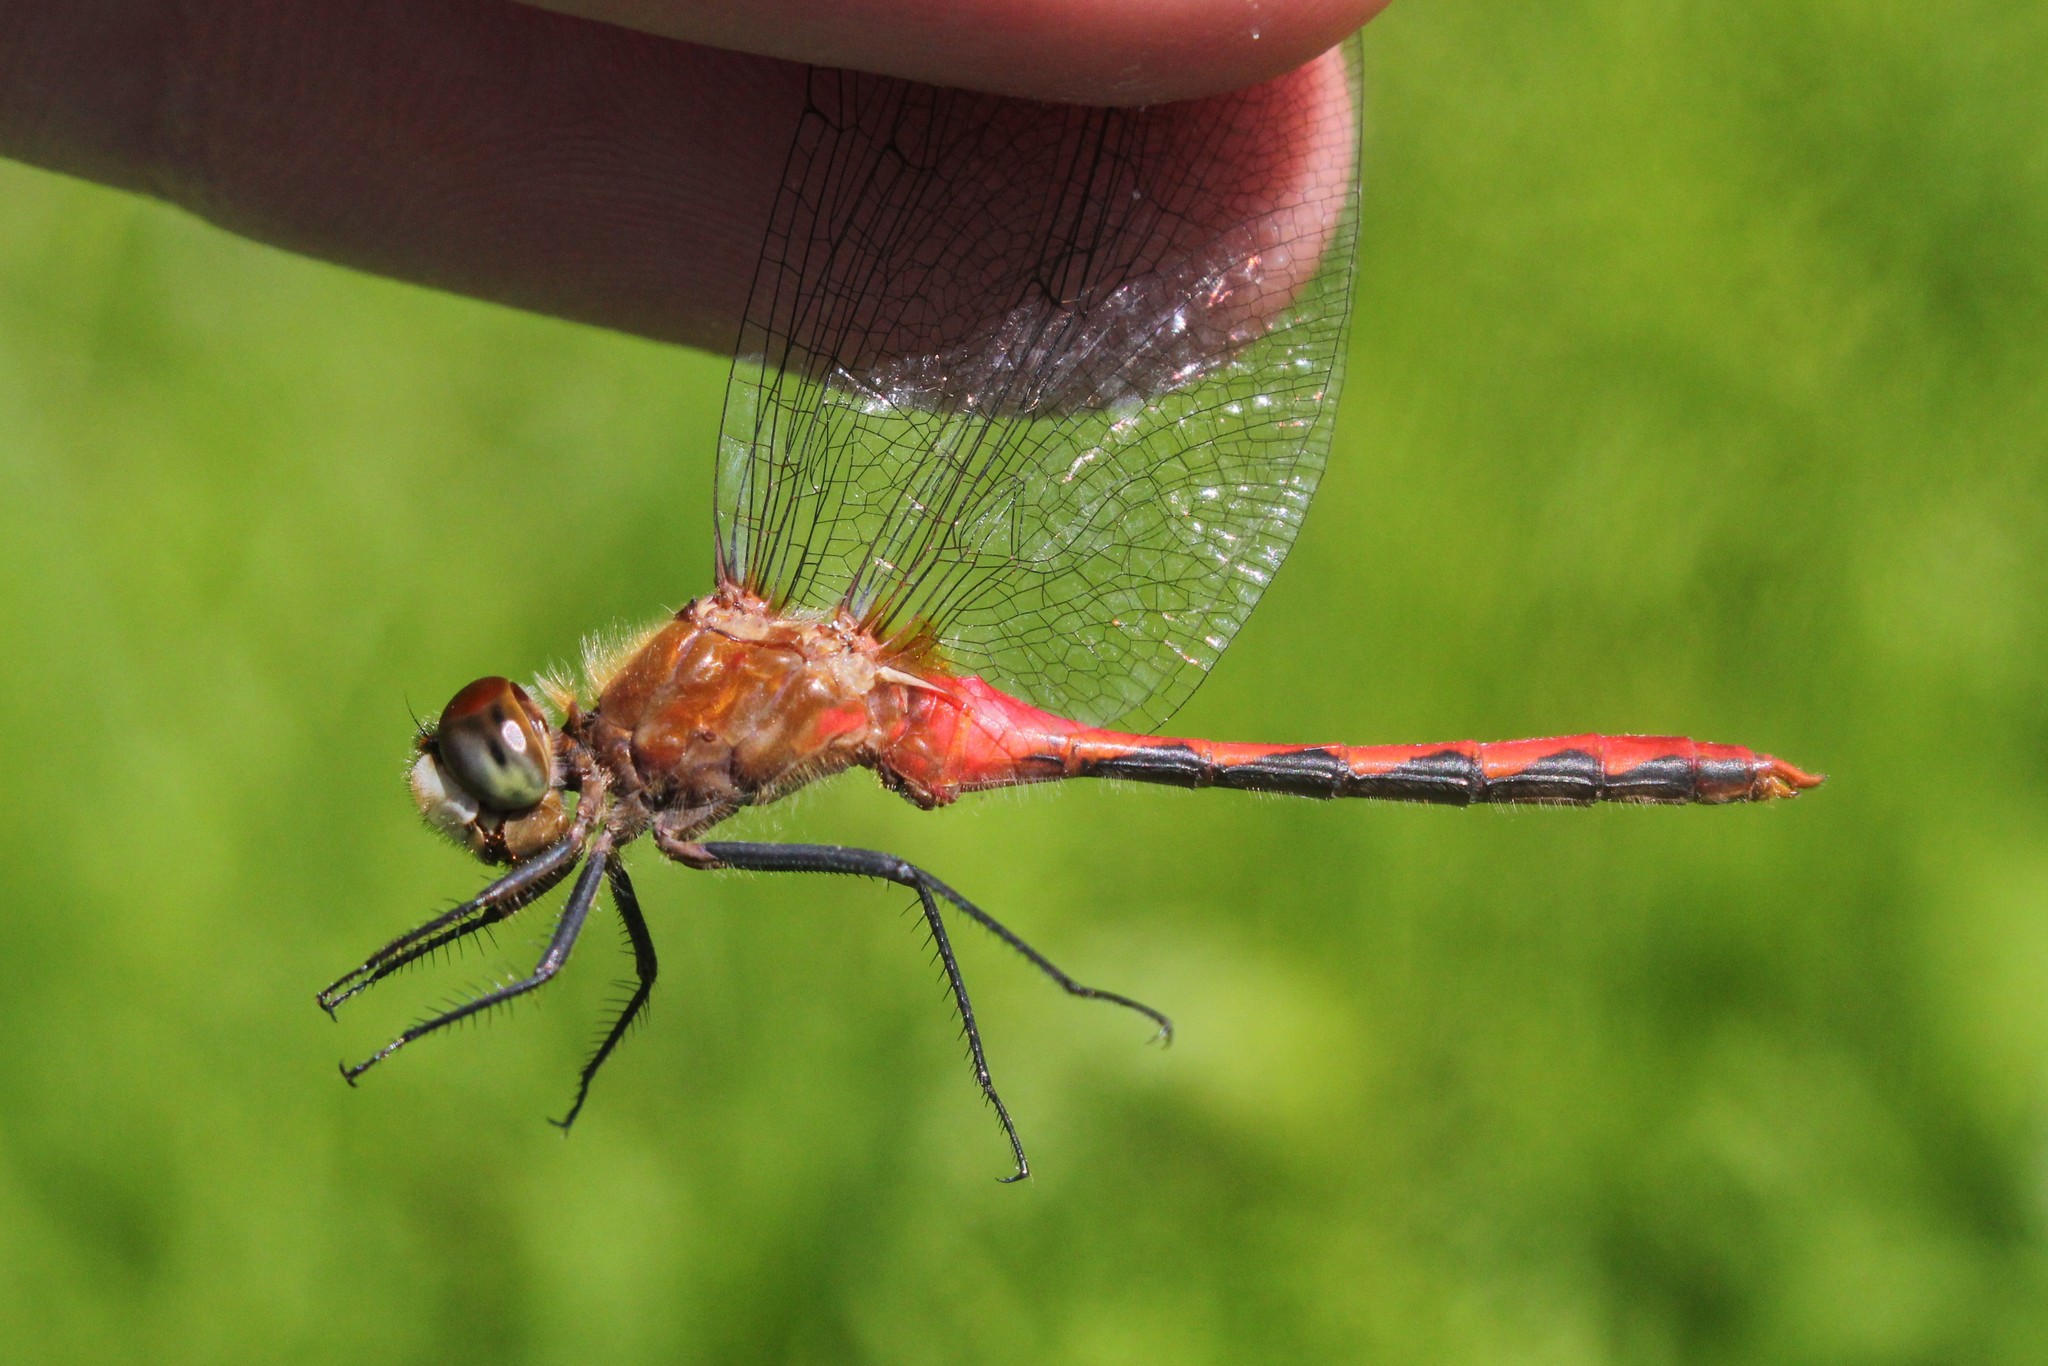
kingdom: Animalia
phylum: Arthropoda
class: Insecta
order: Odonata
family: Libellulidae
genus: Sympetrum
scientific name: Sympetrum obtrusum
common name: White-faced meadowhawk
